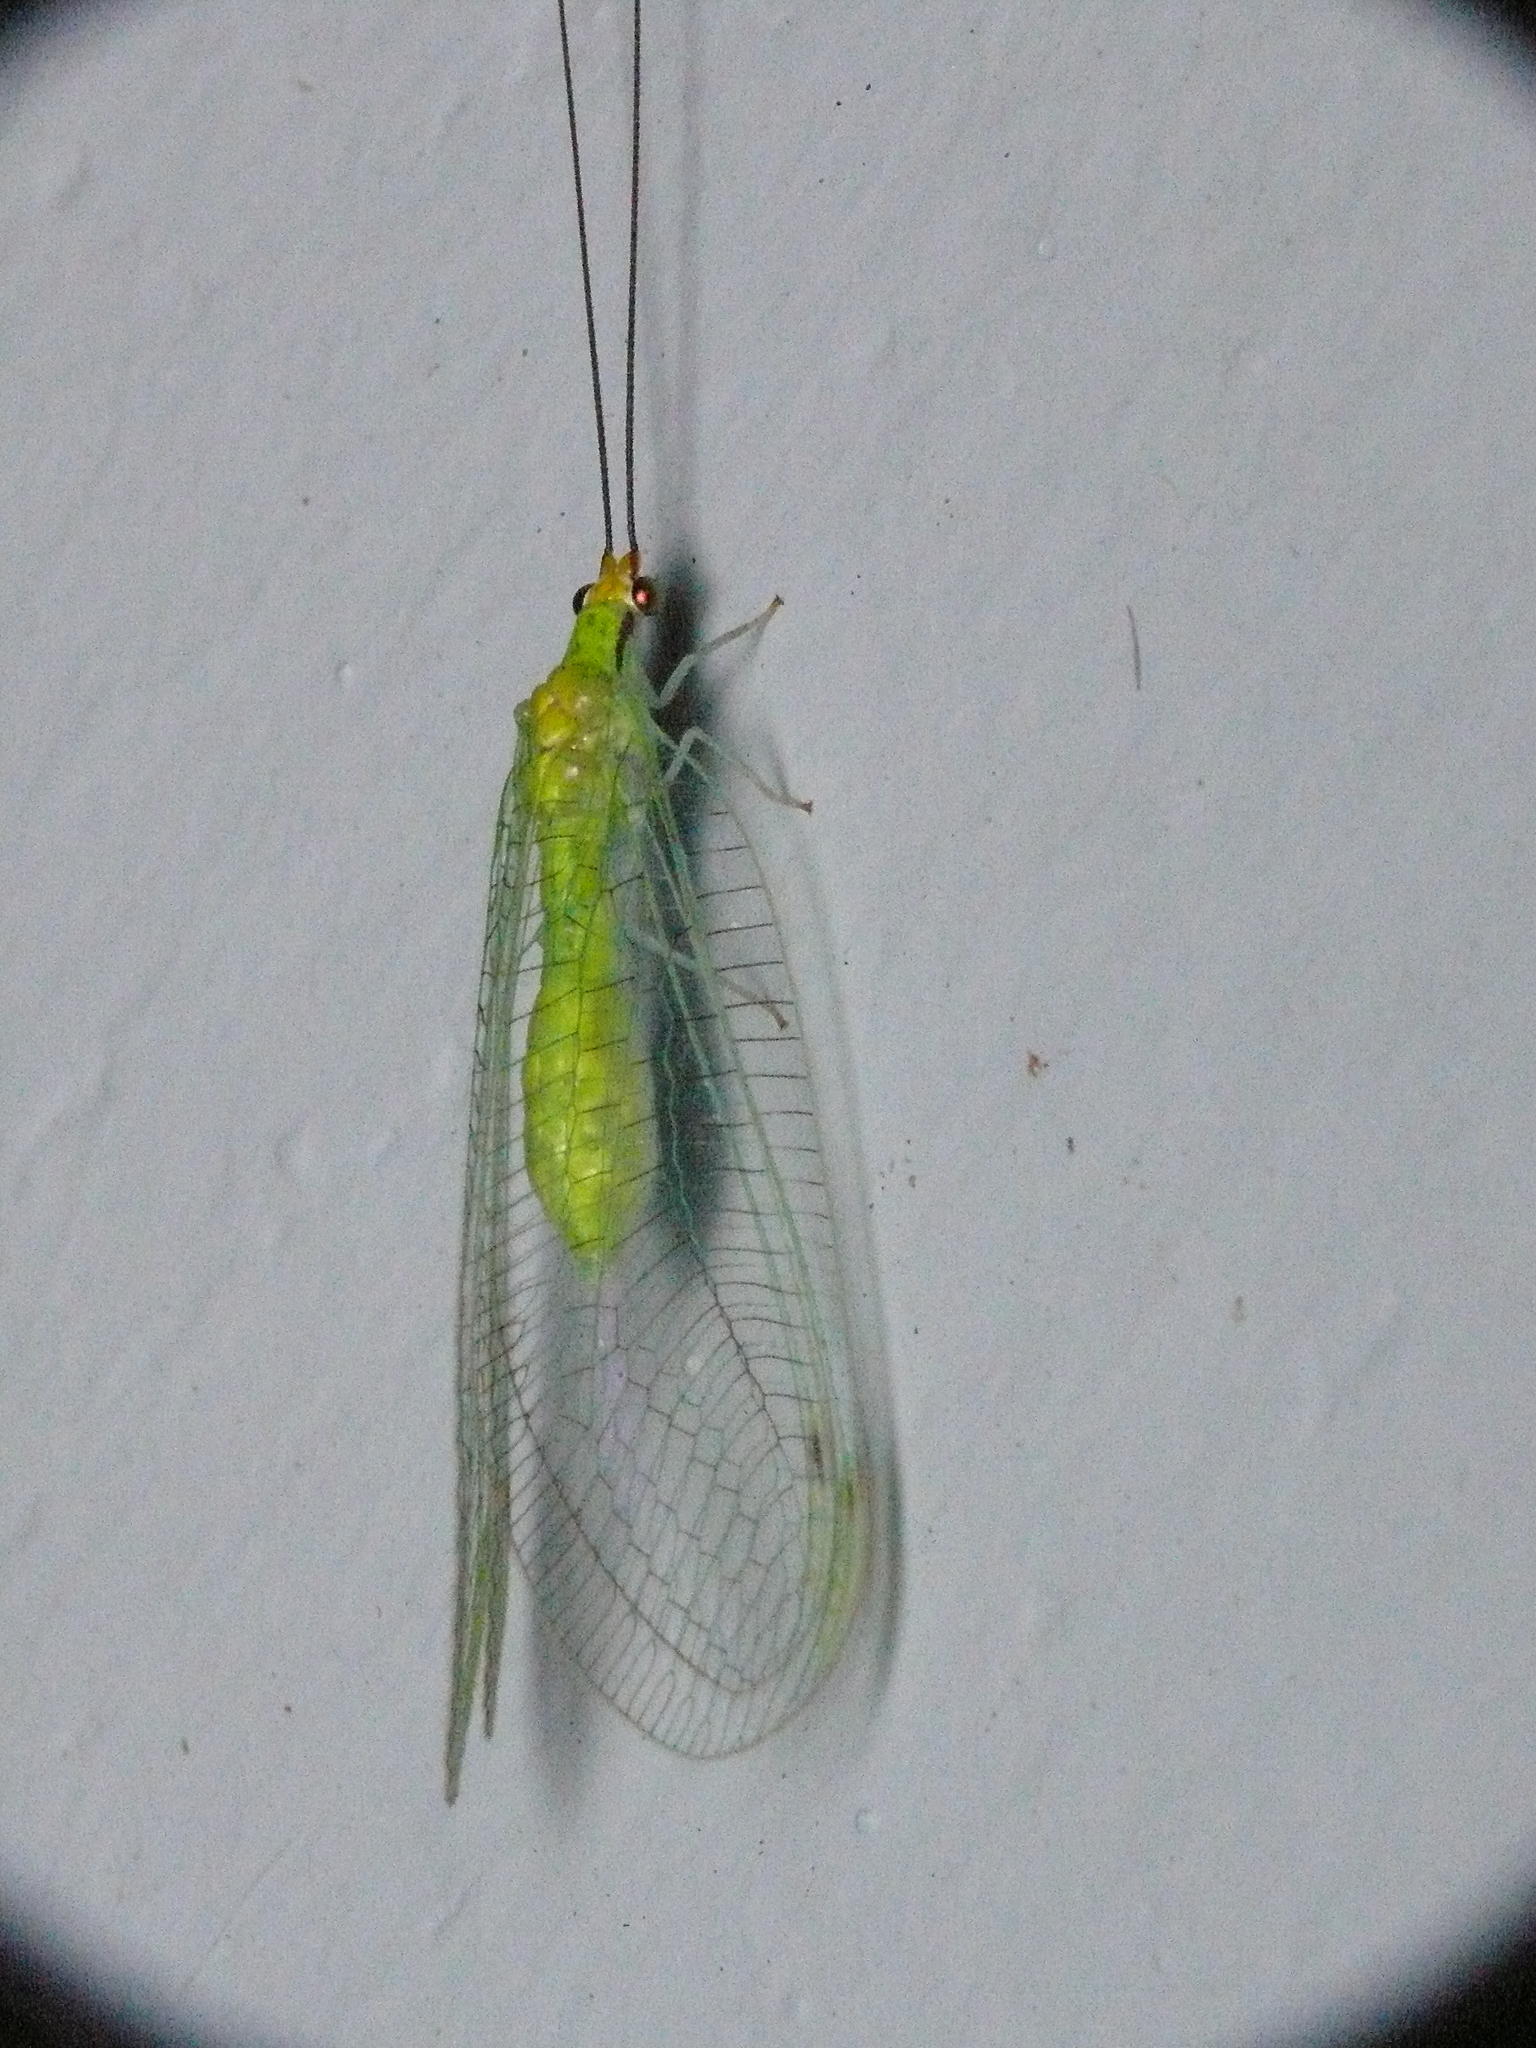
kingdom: Animalia
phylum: Arthropoda
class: Insecta
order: Neuroptera
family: Chrysopidae
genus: Leucochrysa
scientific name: Leucochrysa pavida
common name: Lichen-carrying green lacewing
